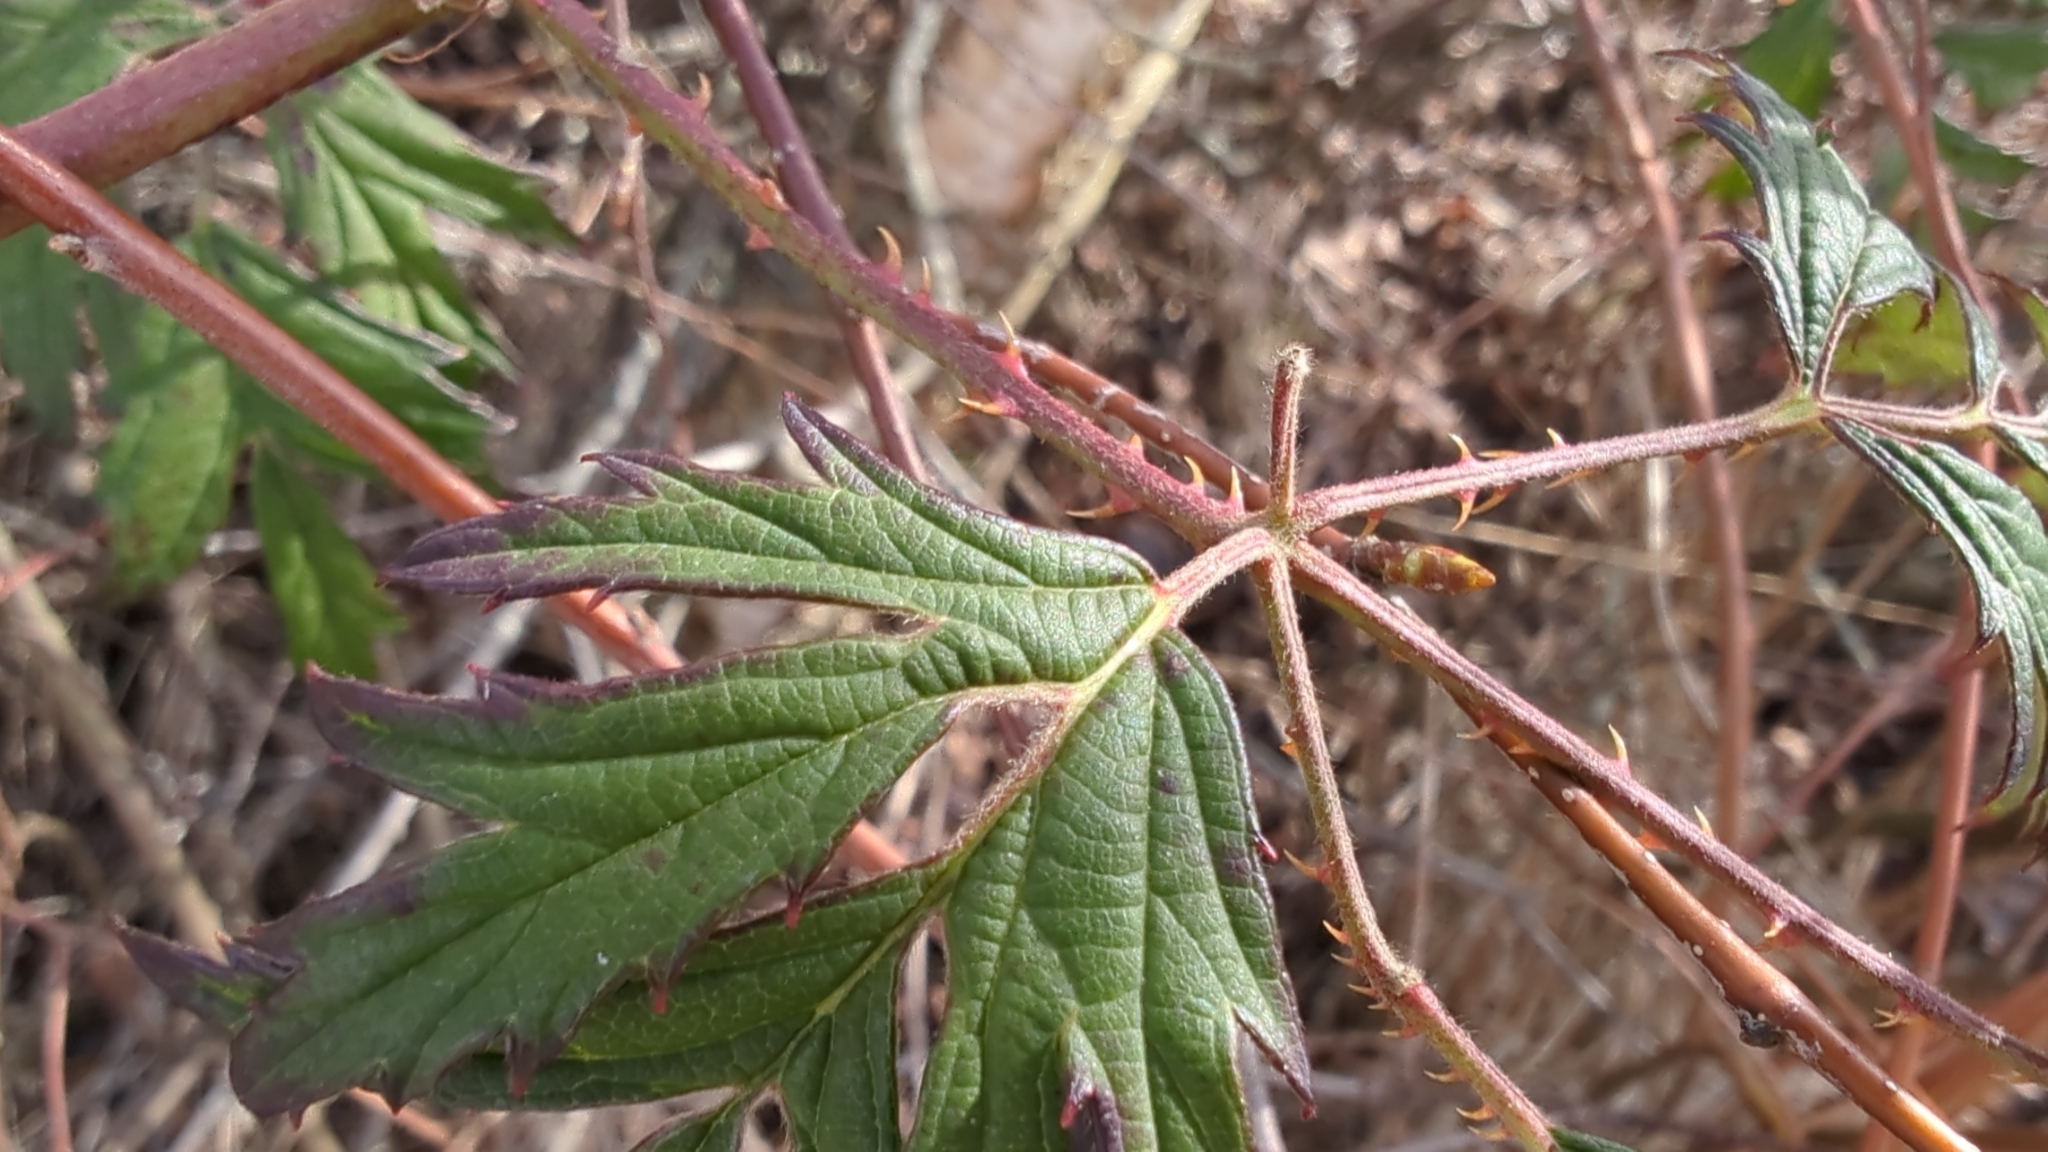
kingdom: Plantae
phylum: Tracheophyta
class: Magnoliopsida
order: Rosales
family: Rosaceae
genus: Rubus
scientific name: Rubus laciniatus
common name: Evergreen blackberry
